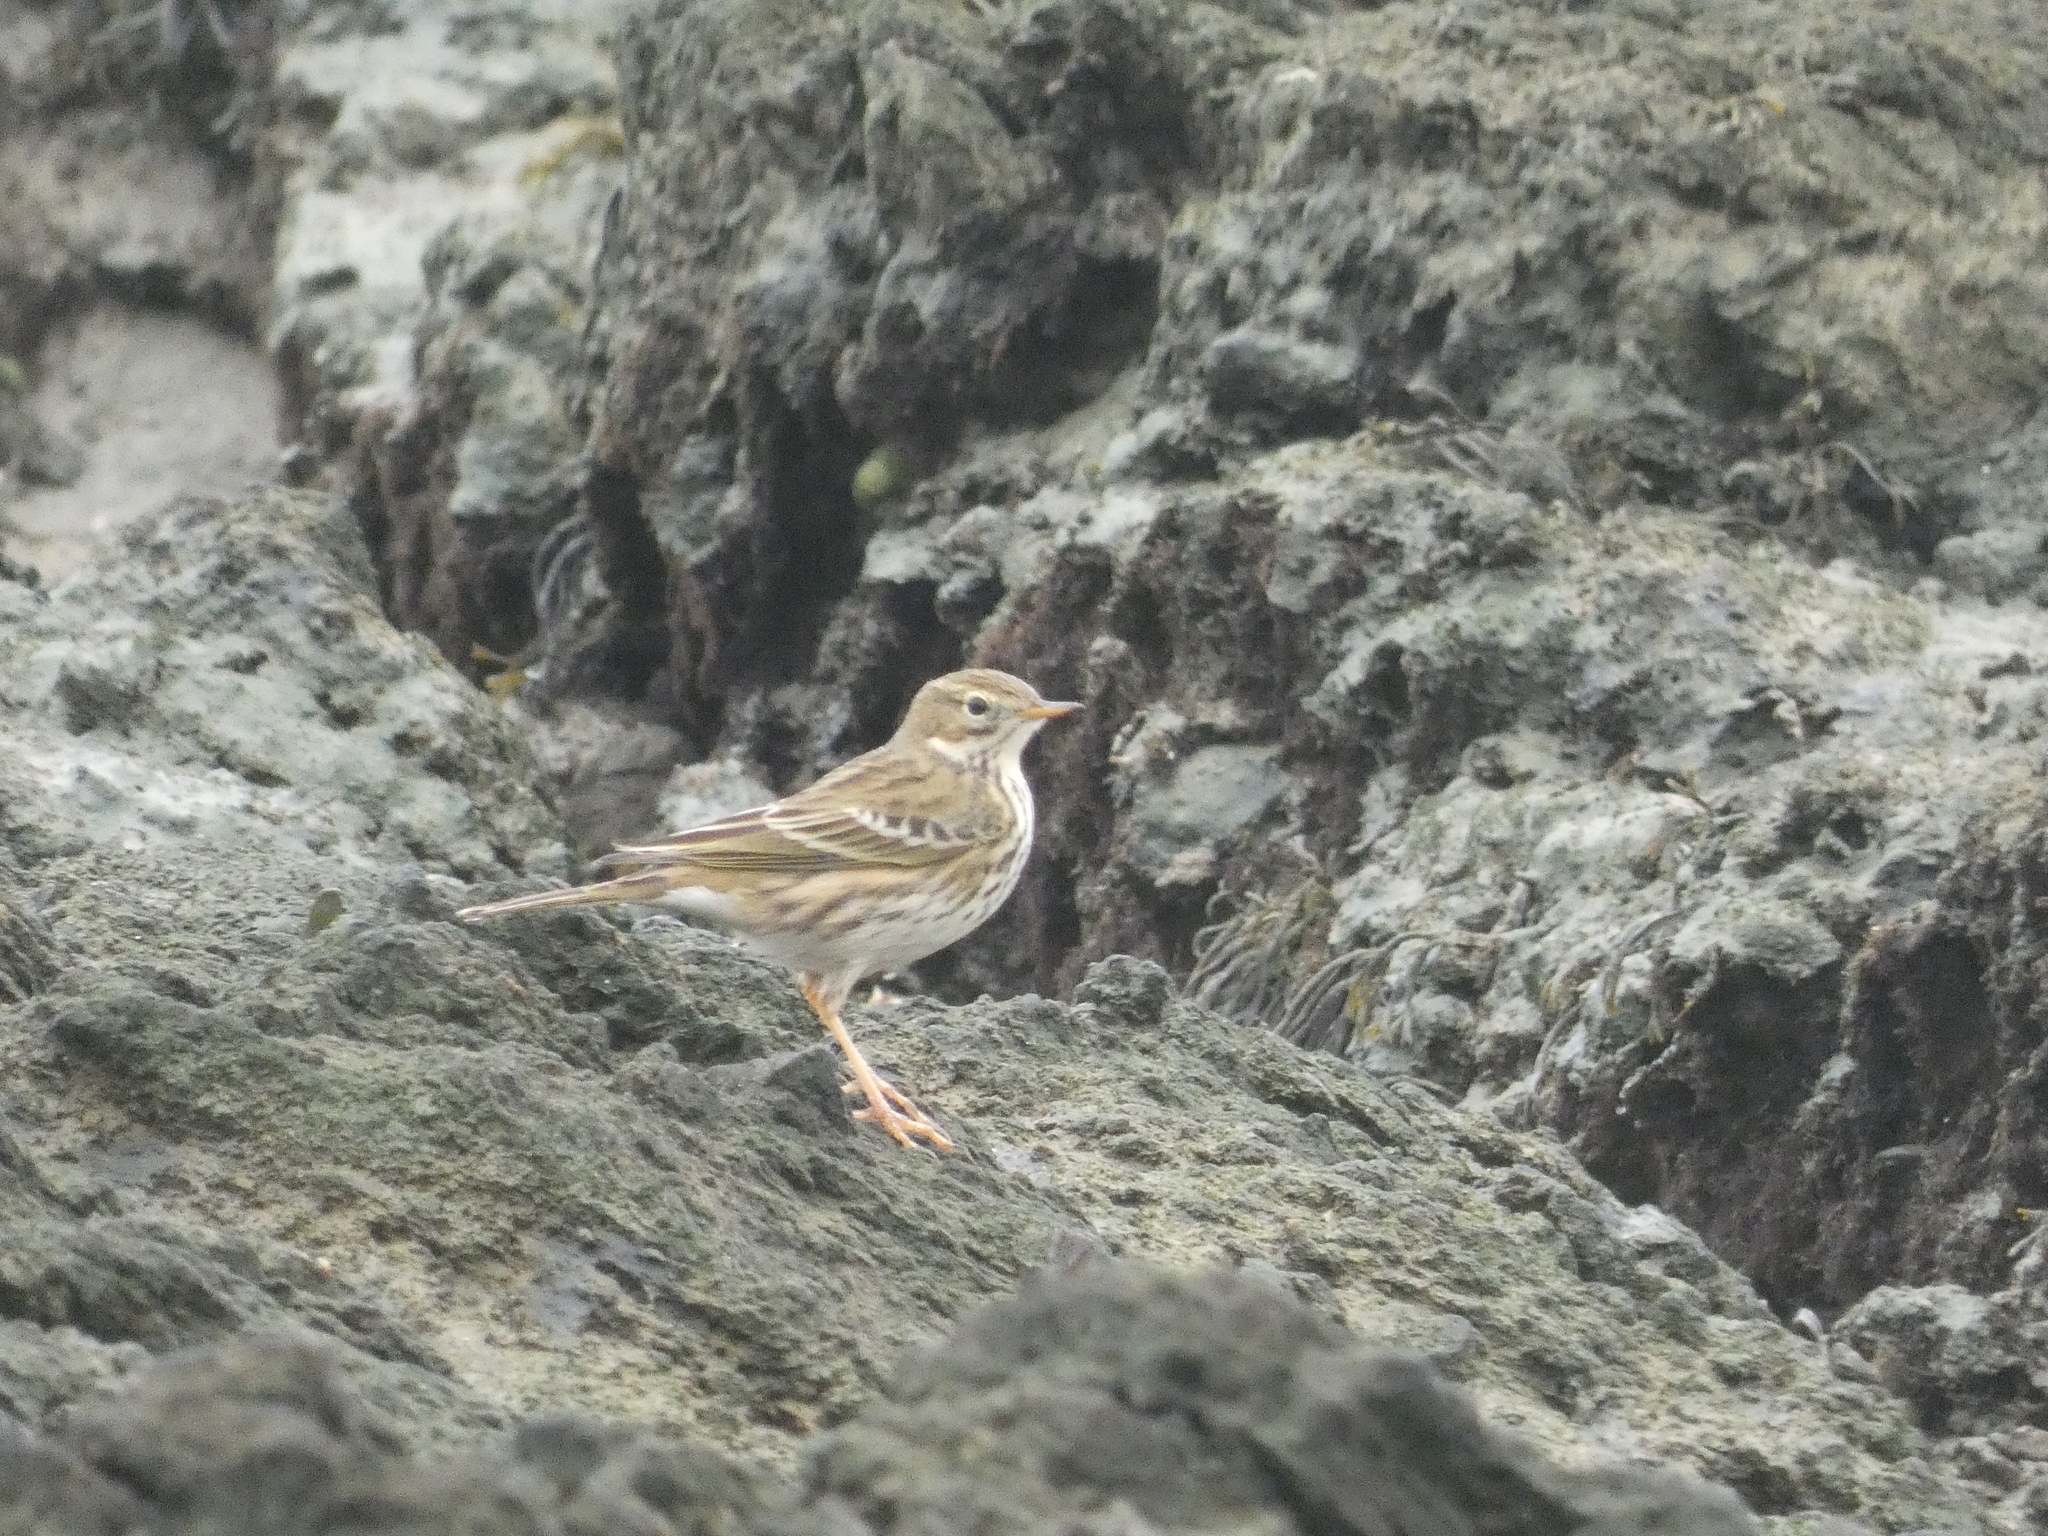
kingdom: Animalia
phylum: Chordata
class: Aves
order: Passeriformes
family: Motacillidae
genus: Anthus
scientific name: Anthus pratensis
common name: Meadow pipit
